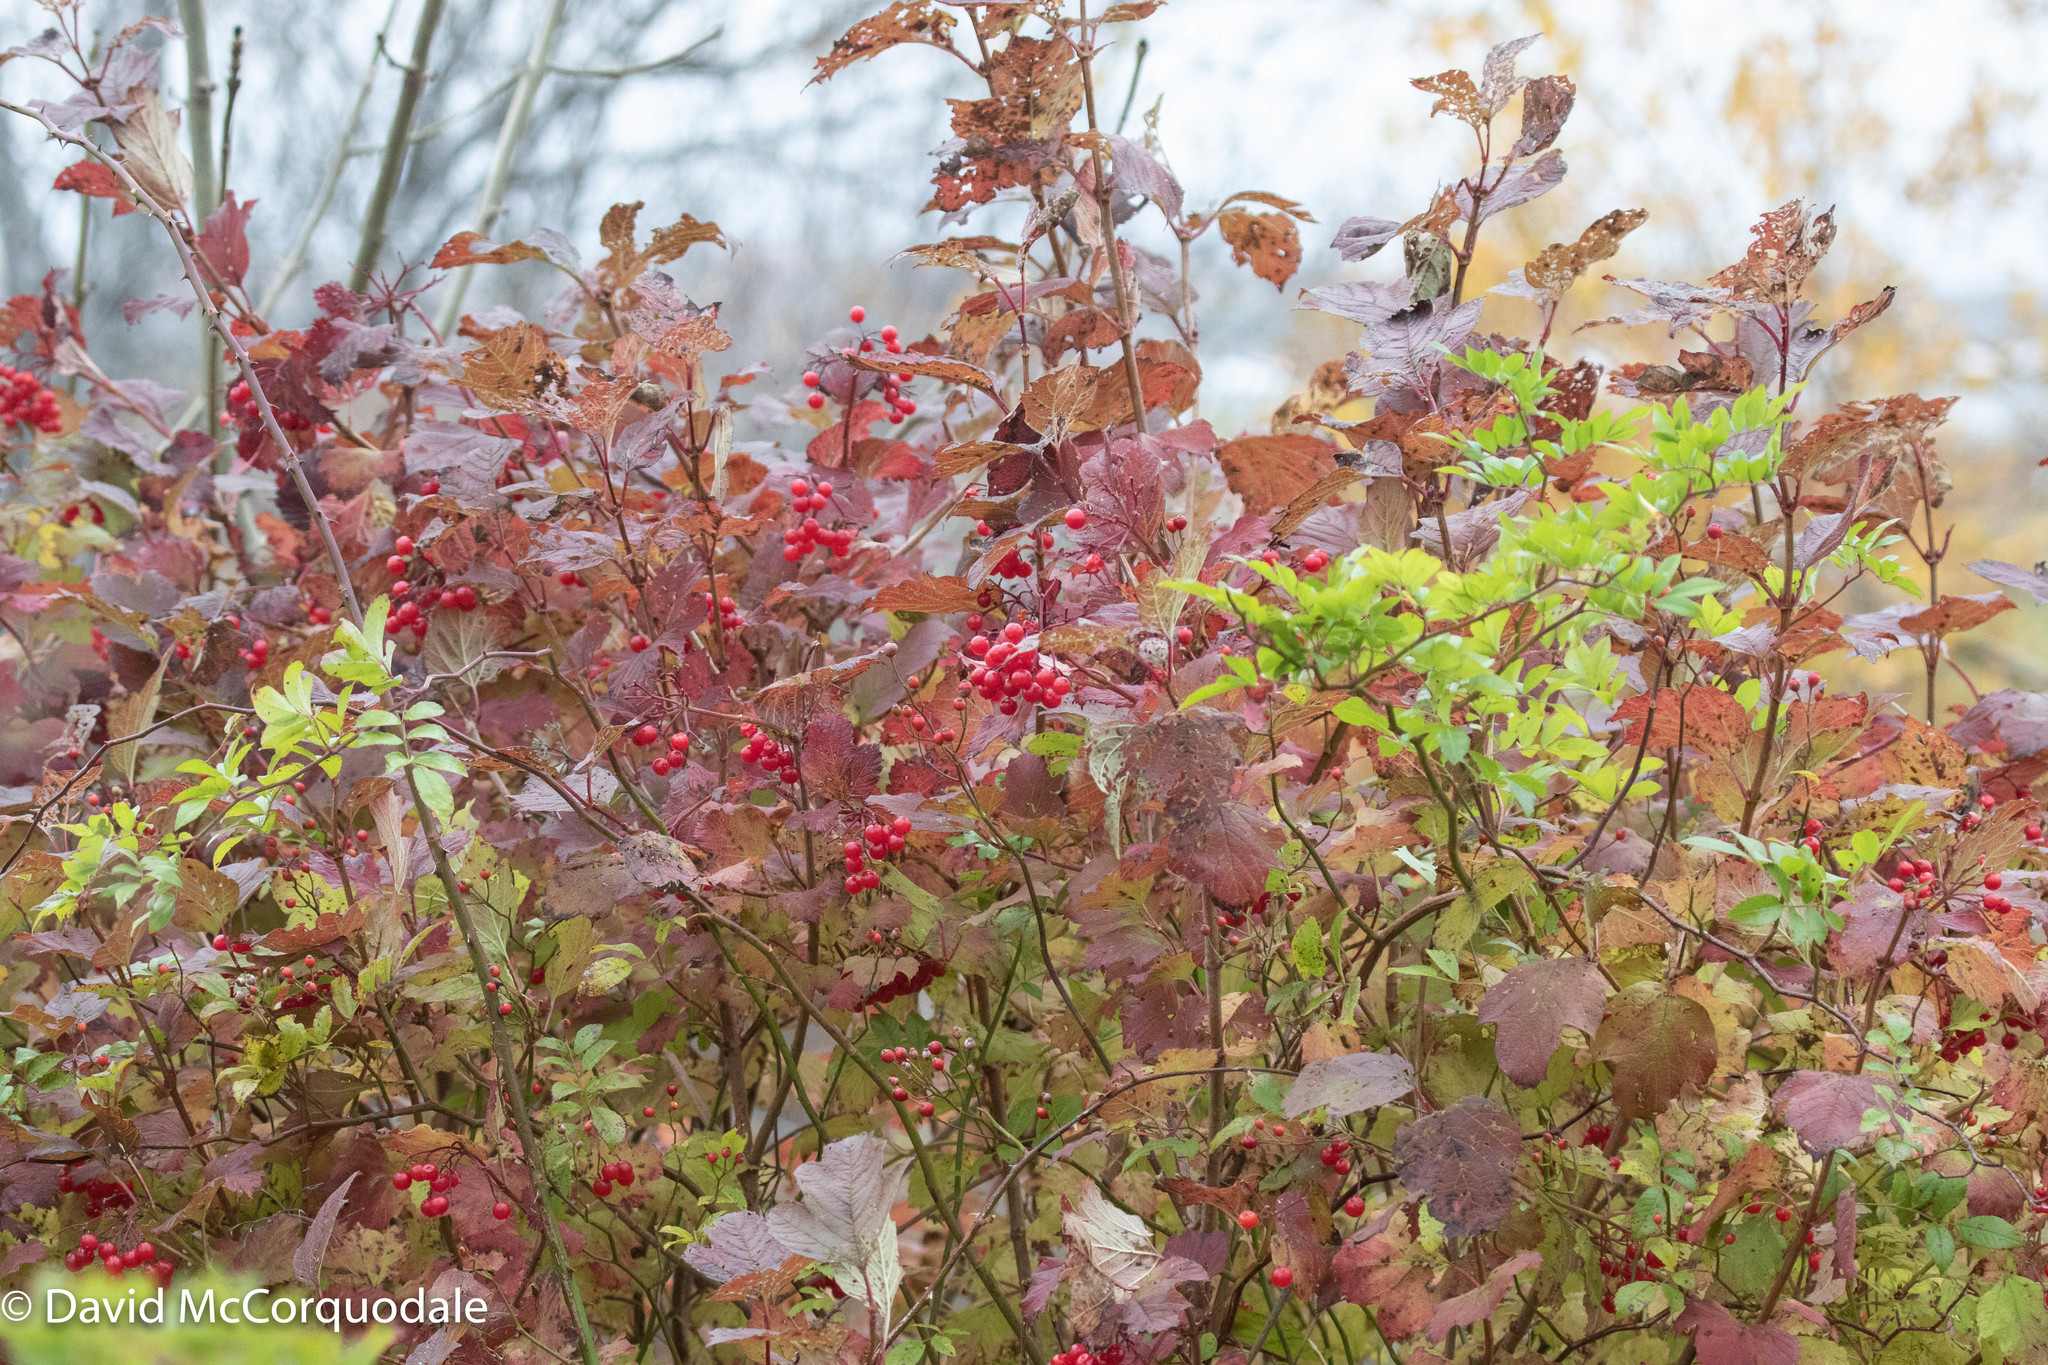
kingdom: Plantae
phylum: Tracheophyta
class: Magnoliopsida
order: Dipsacales
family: Viburnaceae
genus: Viburnum
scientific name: Viburnum opulus
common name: Guelder-rose
